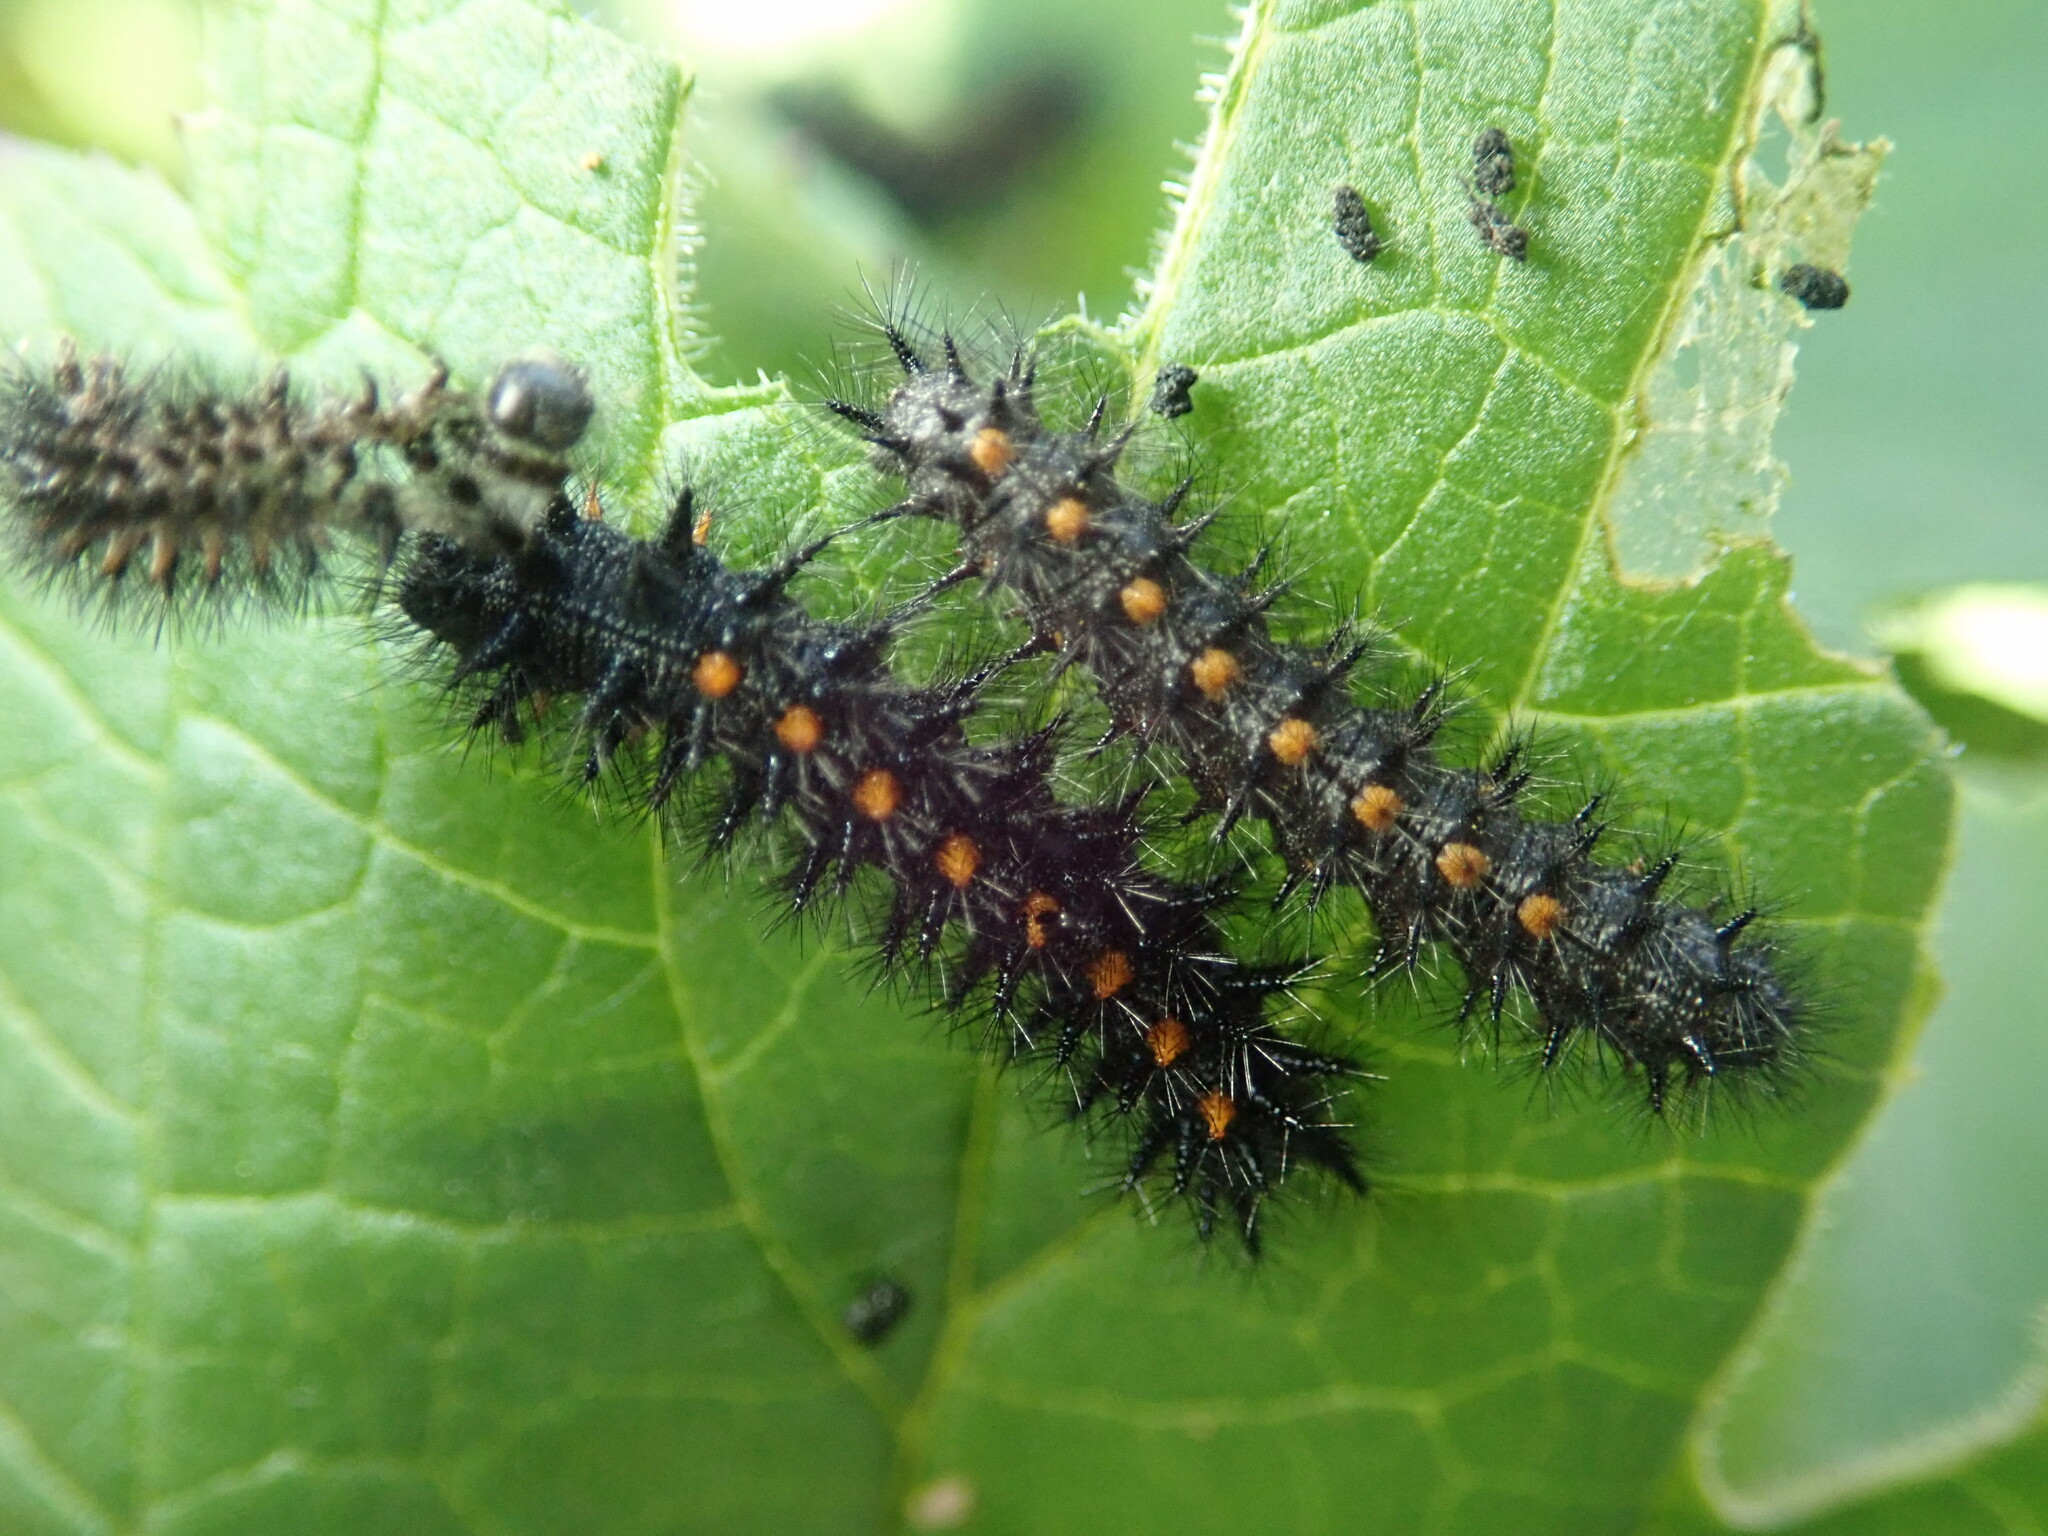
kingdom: Animalia
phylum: Arthropoda
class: Insecta
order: Lepidoptera
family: Nymphalidae
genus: Occidryas
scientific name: Occidryas chalcedona
